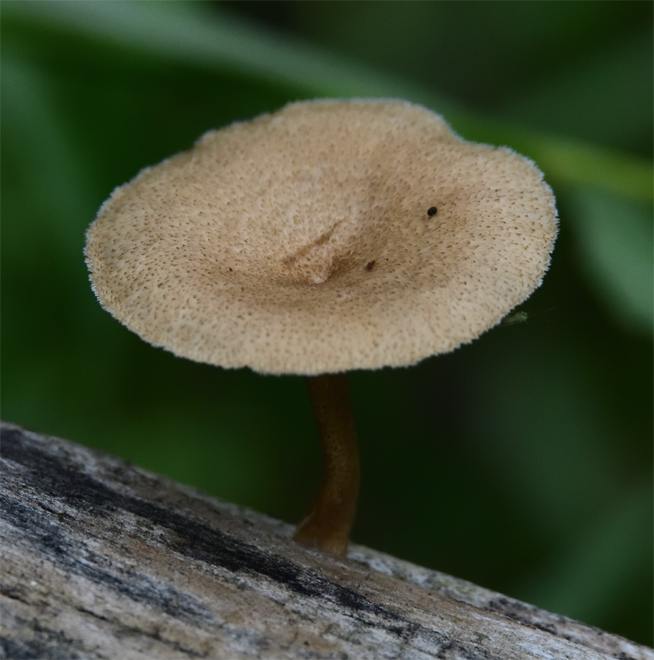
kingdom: Fungi
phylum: Basidiomycota
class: Agaricomycetes
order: Polyporales
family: Polyporaceae
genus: Lentinus
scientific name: Lentinus arcularius
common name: Spring polypore
